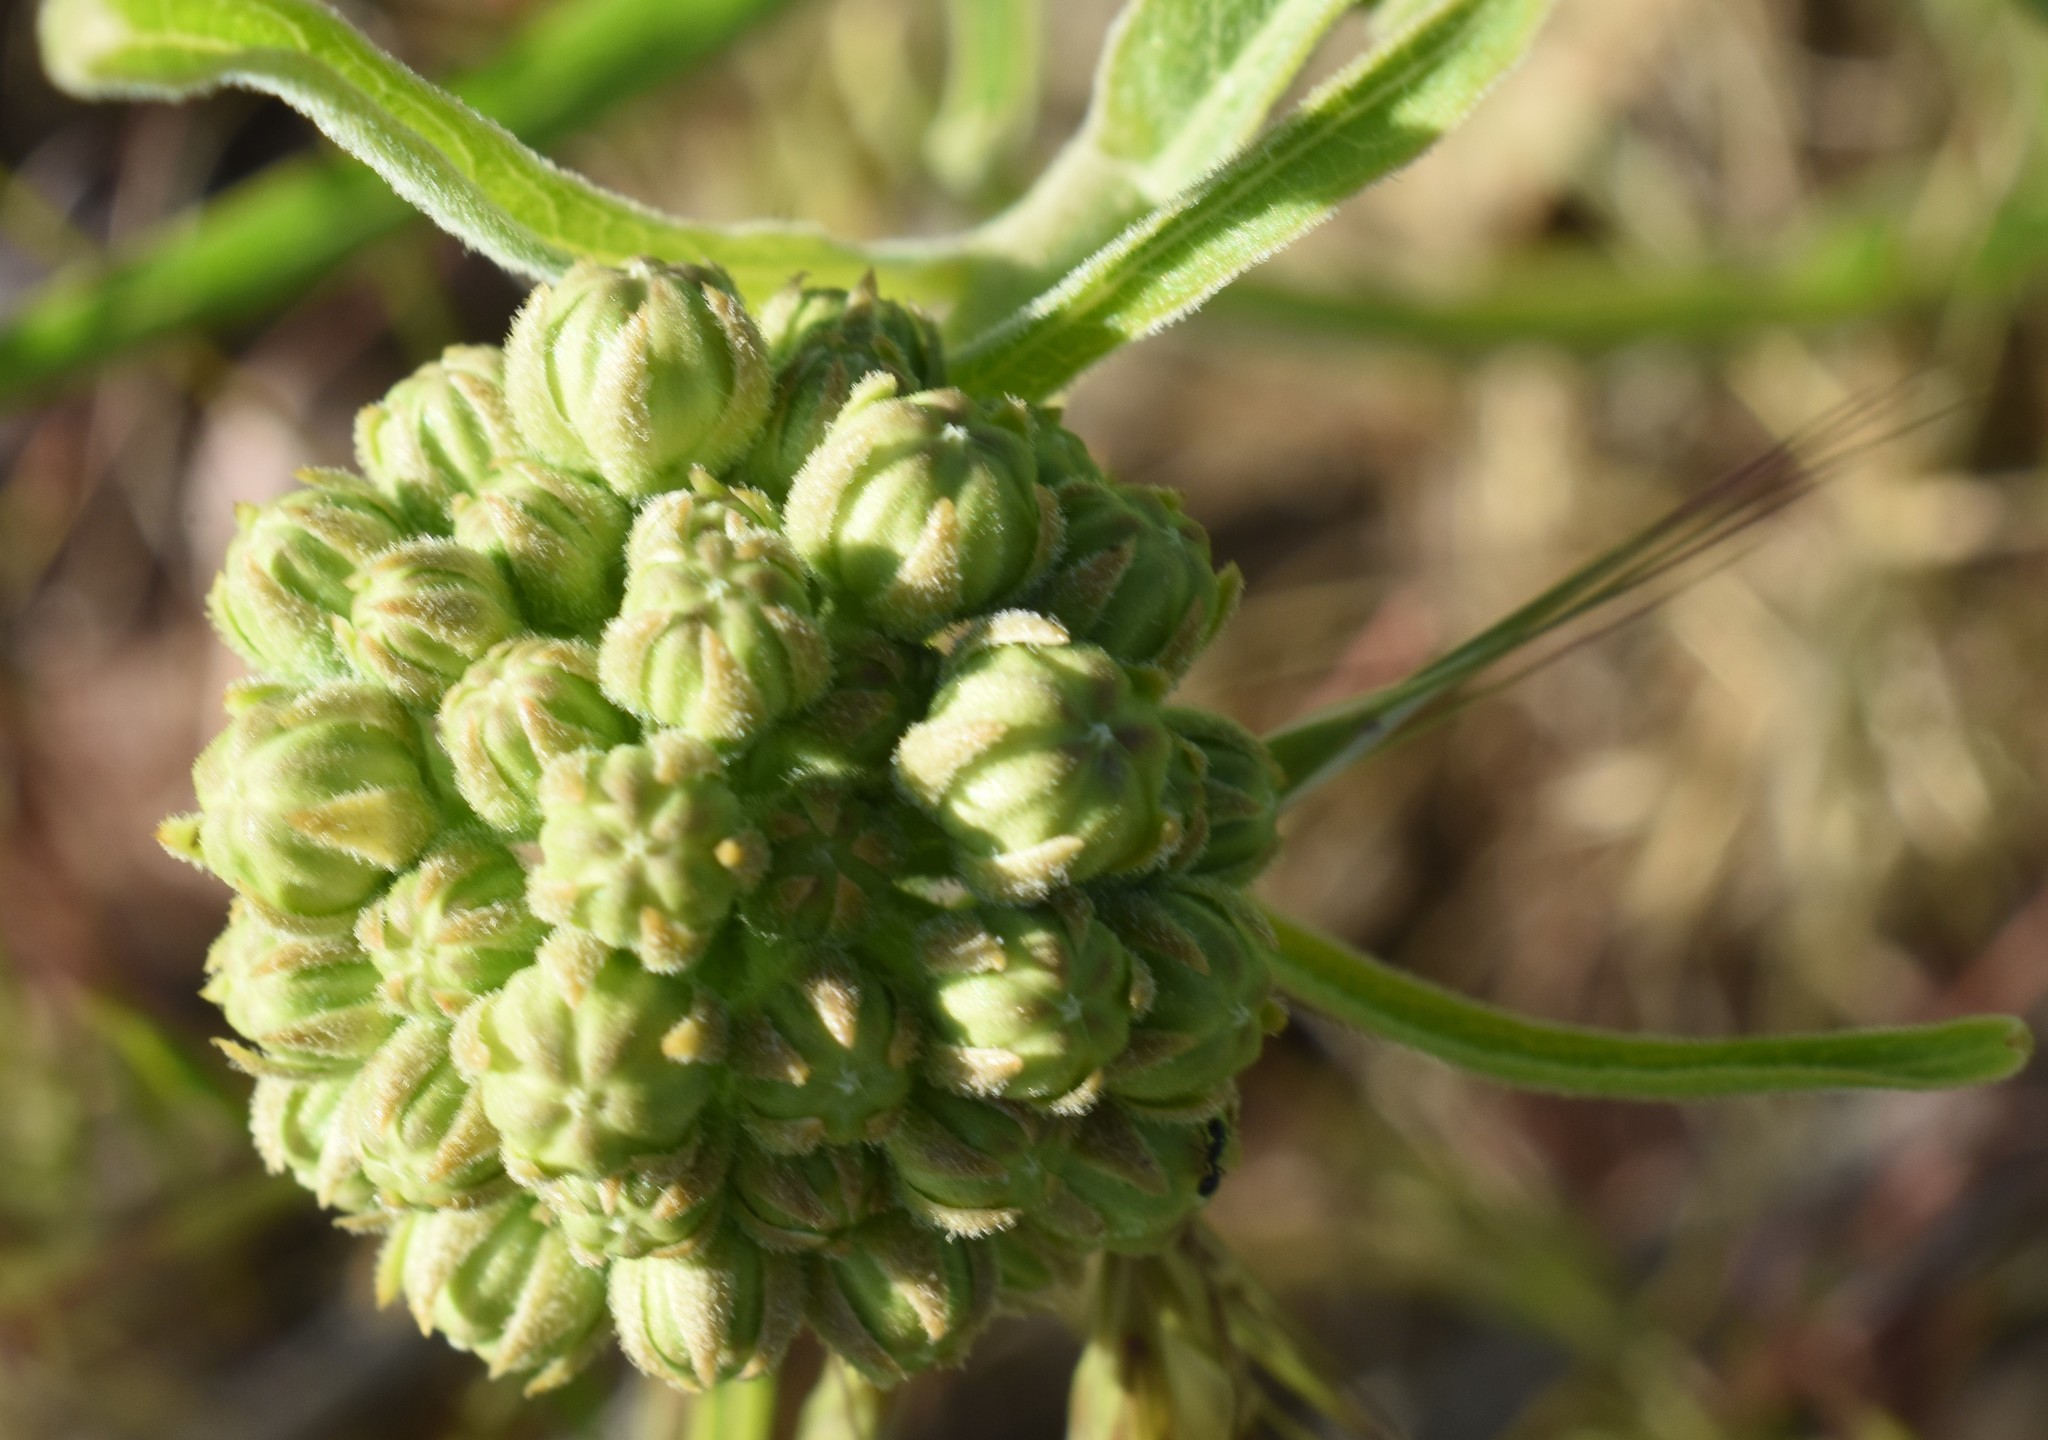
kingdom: Plantae
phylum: Tracheophyta
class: Magnoliopsida
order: Gentianales
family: Apocynaceae
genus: Asclepias
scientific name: Asclepias asperula
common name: Antelope horns
